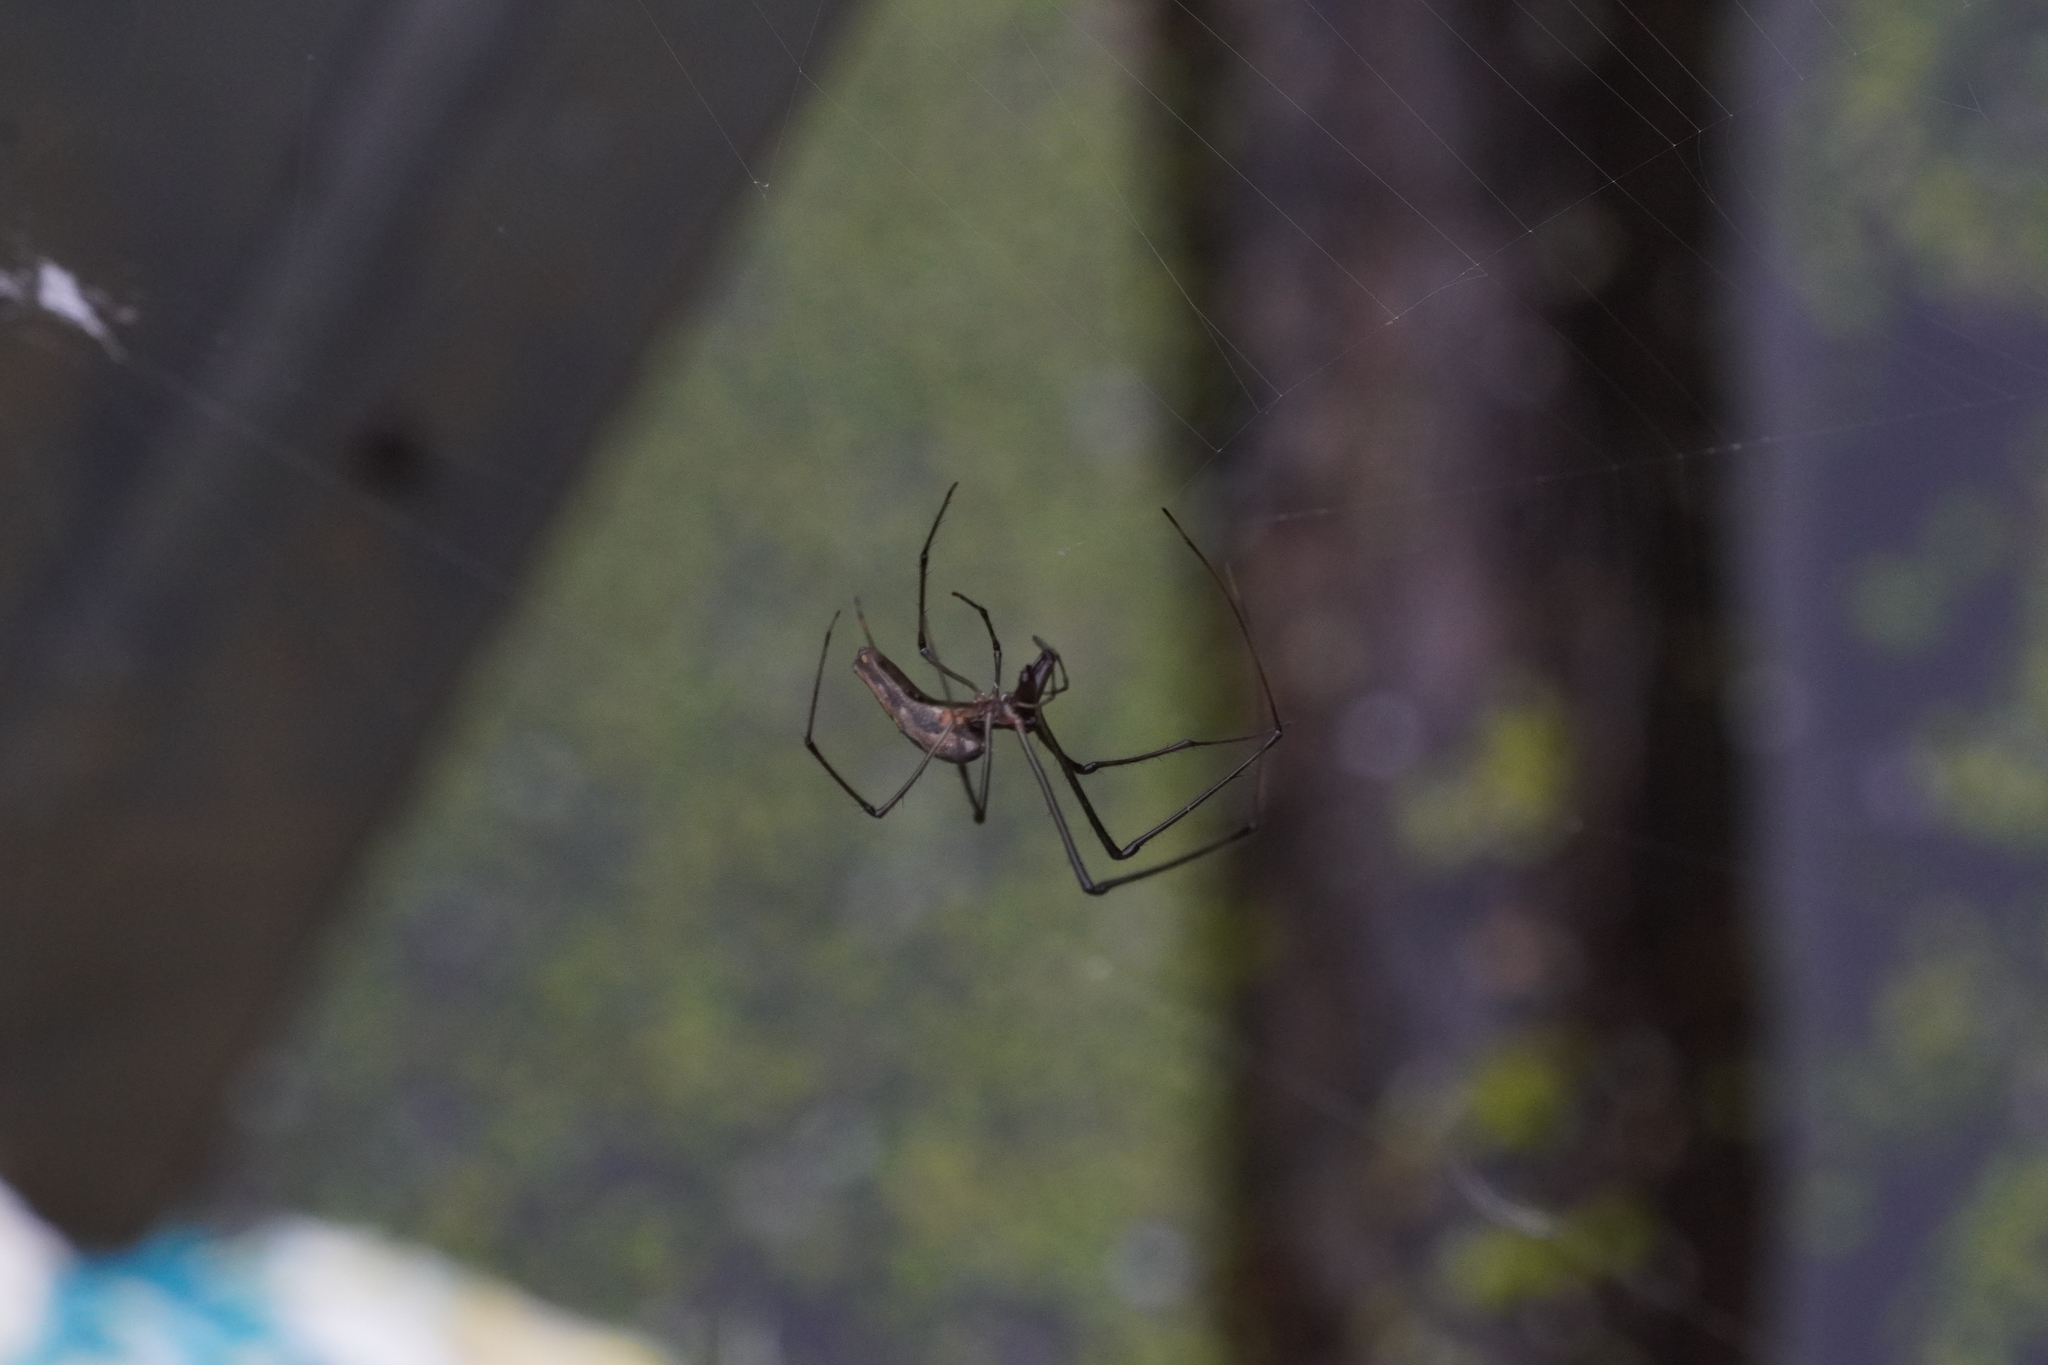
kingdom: Animalia
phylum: Arthropoda
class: Arachnida
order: Araneae
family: Tetragnathidae
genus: Tetragnatha
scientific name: Tetragnatha
